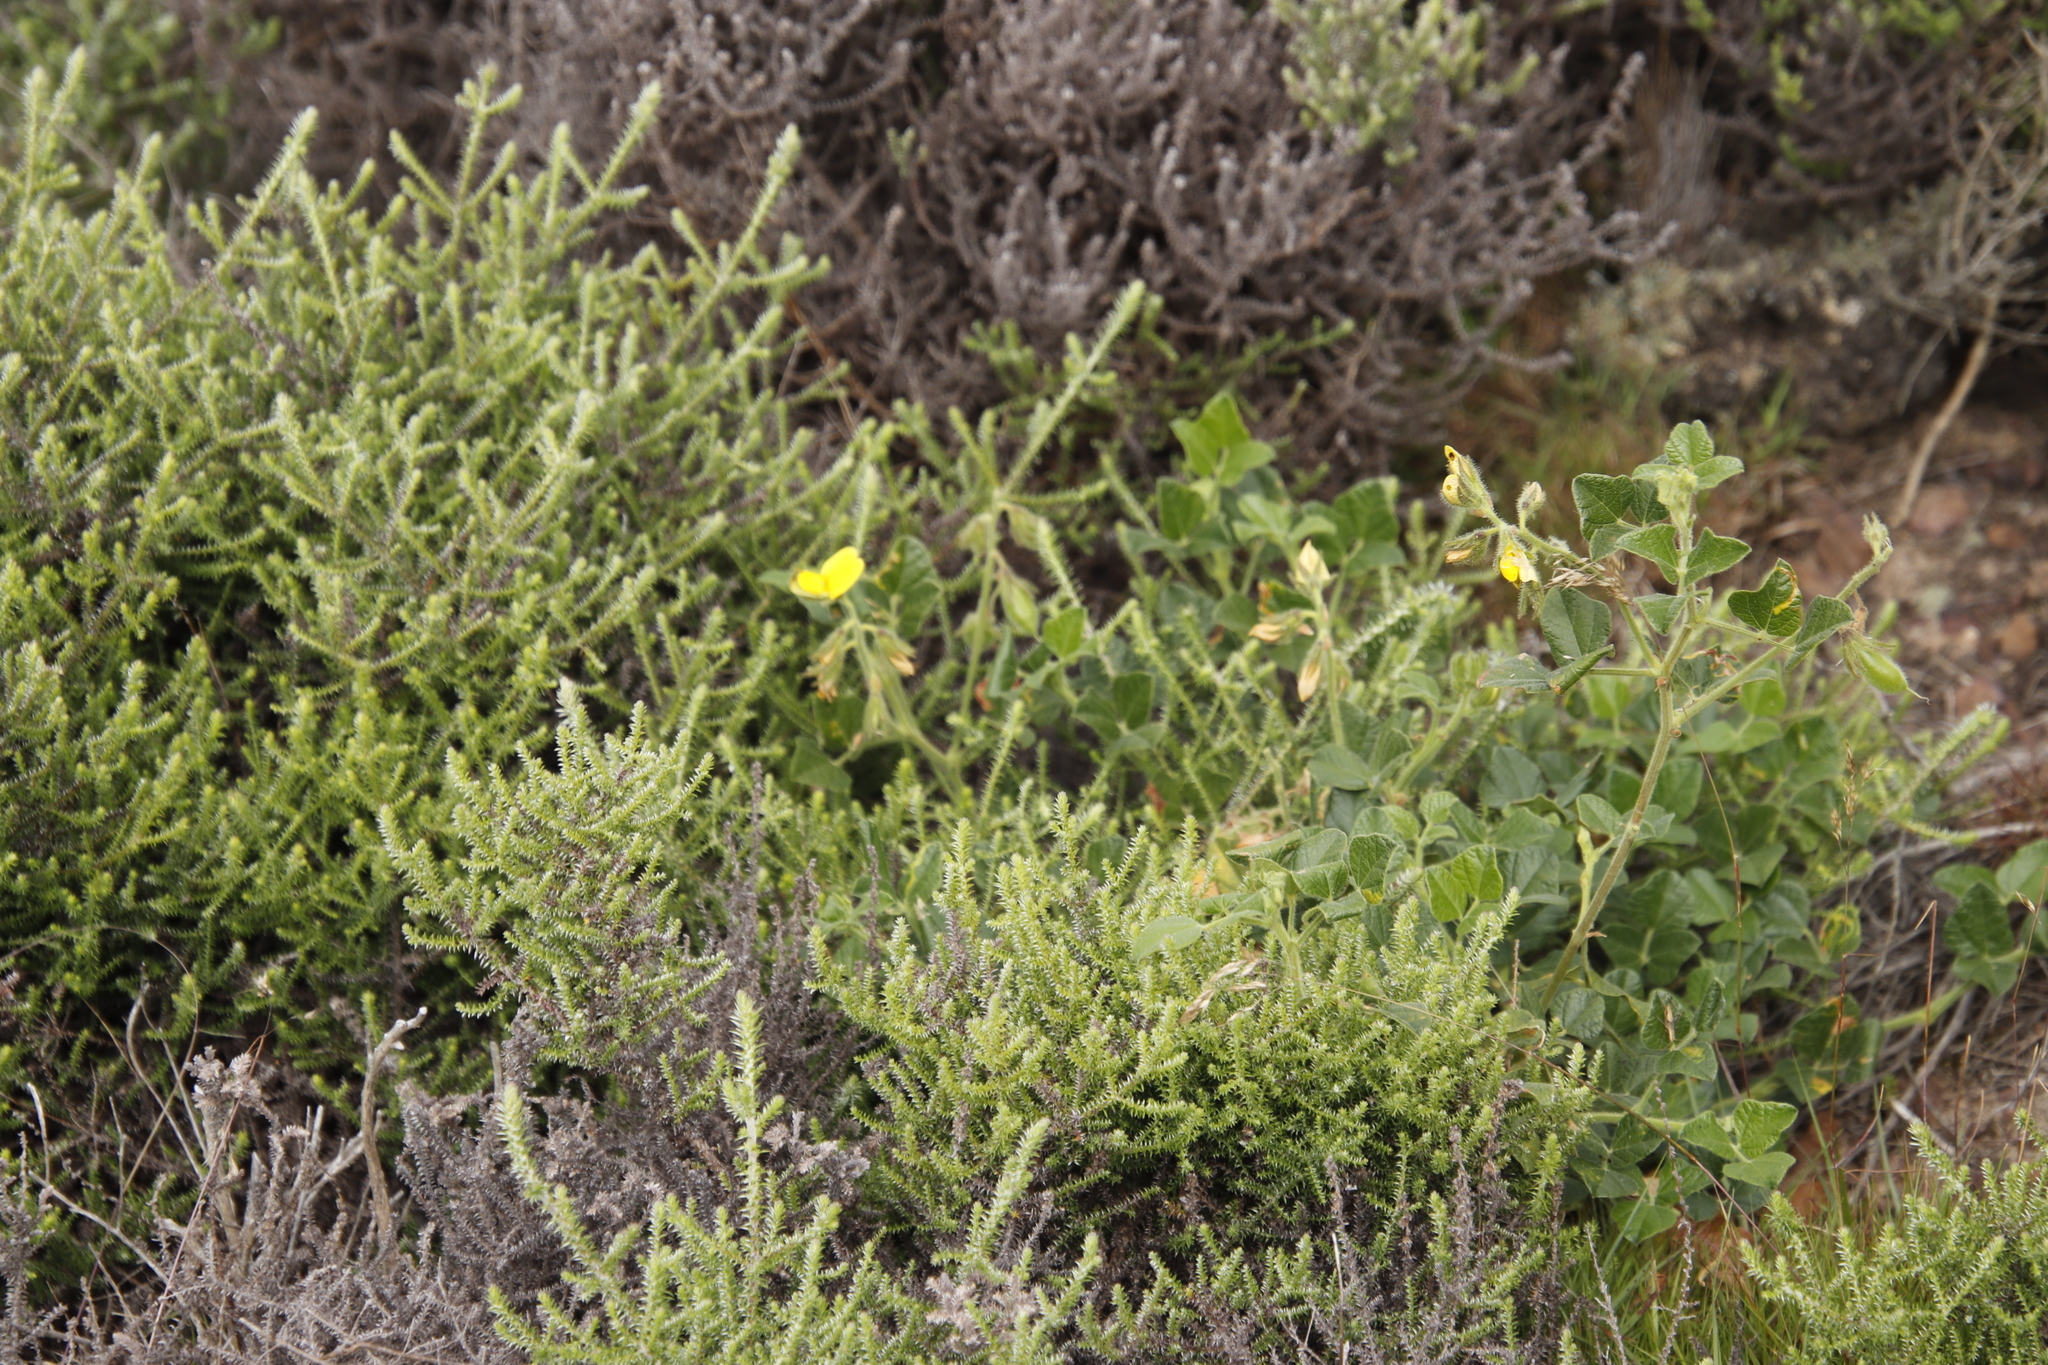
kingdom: Plantae
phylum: Tracheophyta
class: Magnoliopsida
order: Fabales
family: Fabaceae
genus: Bolusafra
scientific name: Bolusafra bituminosa
